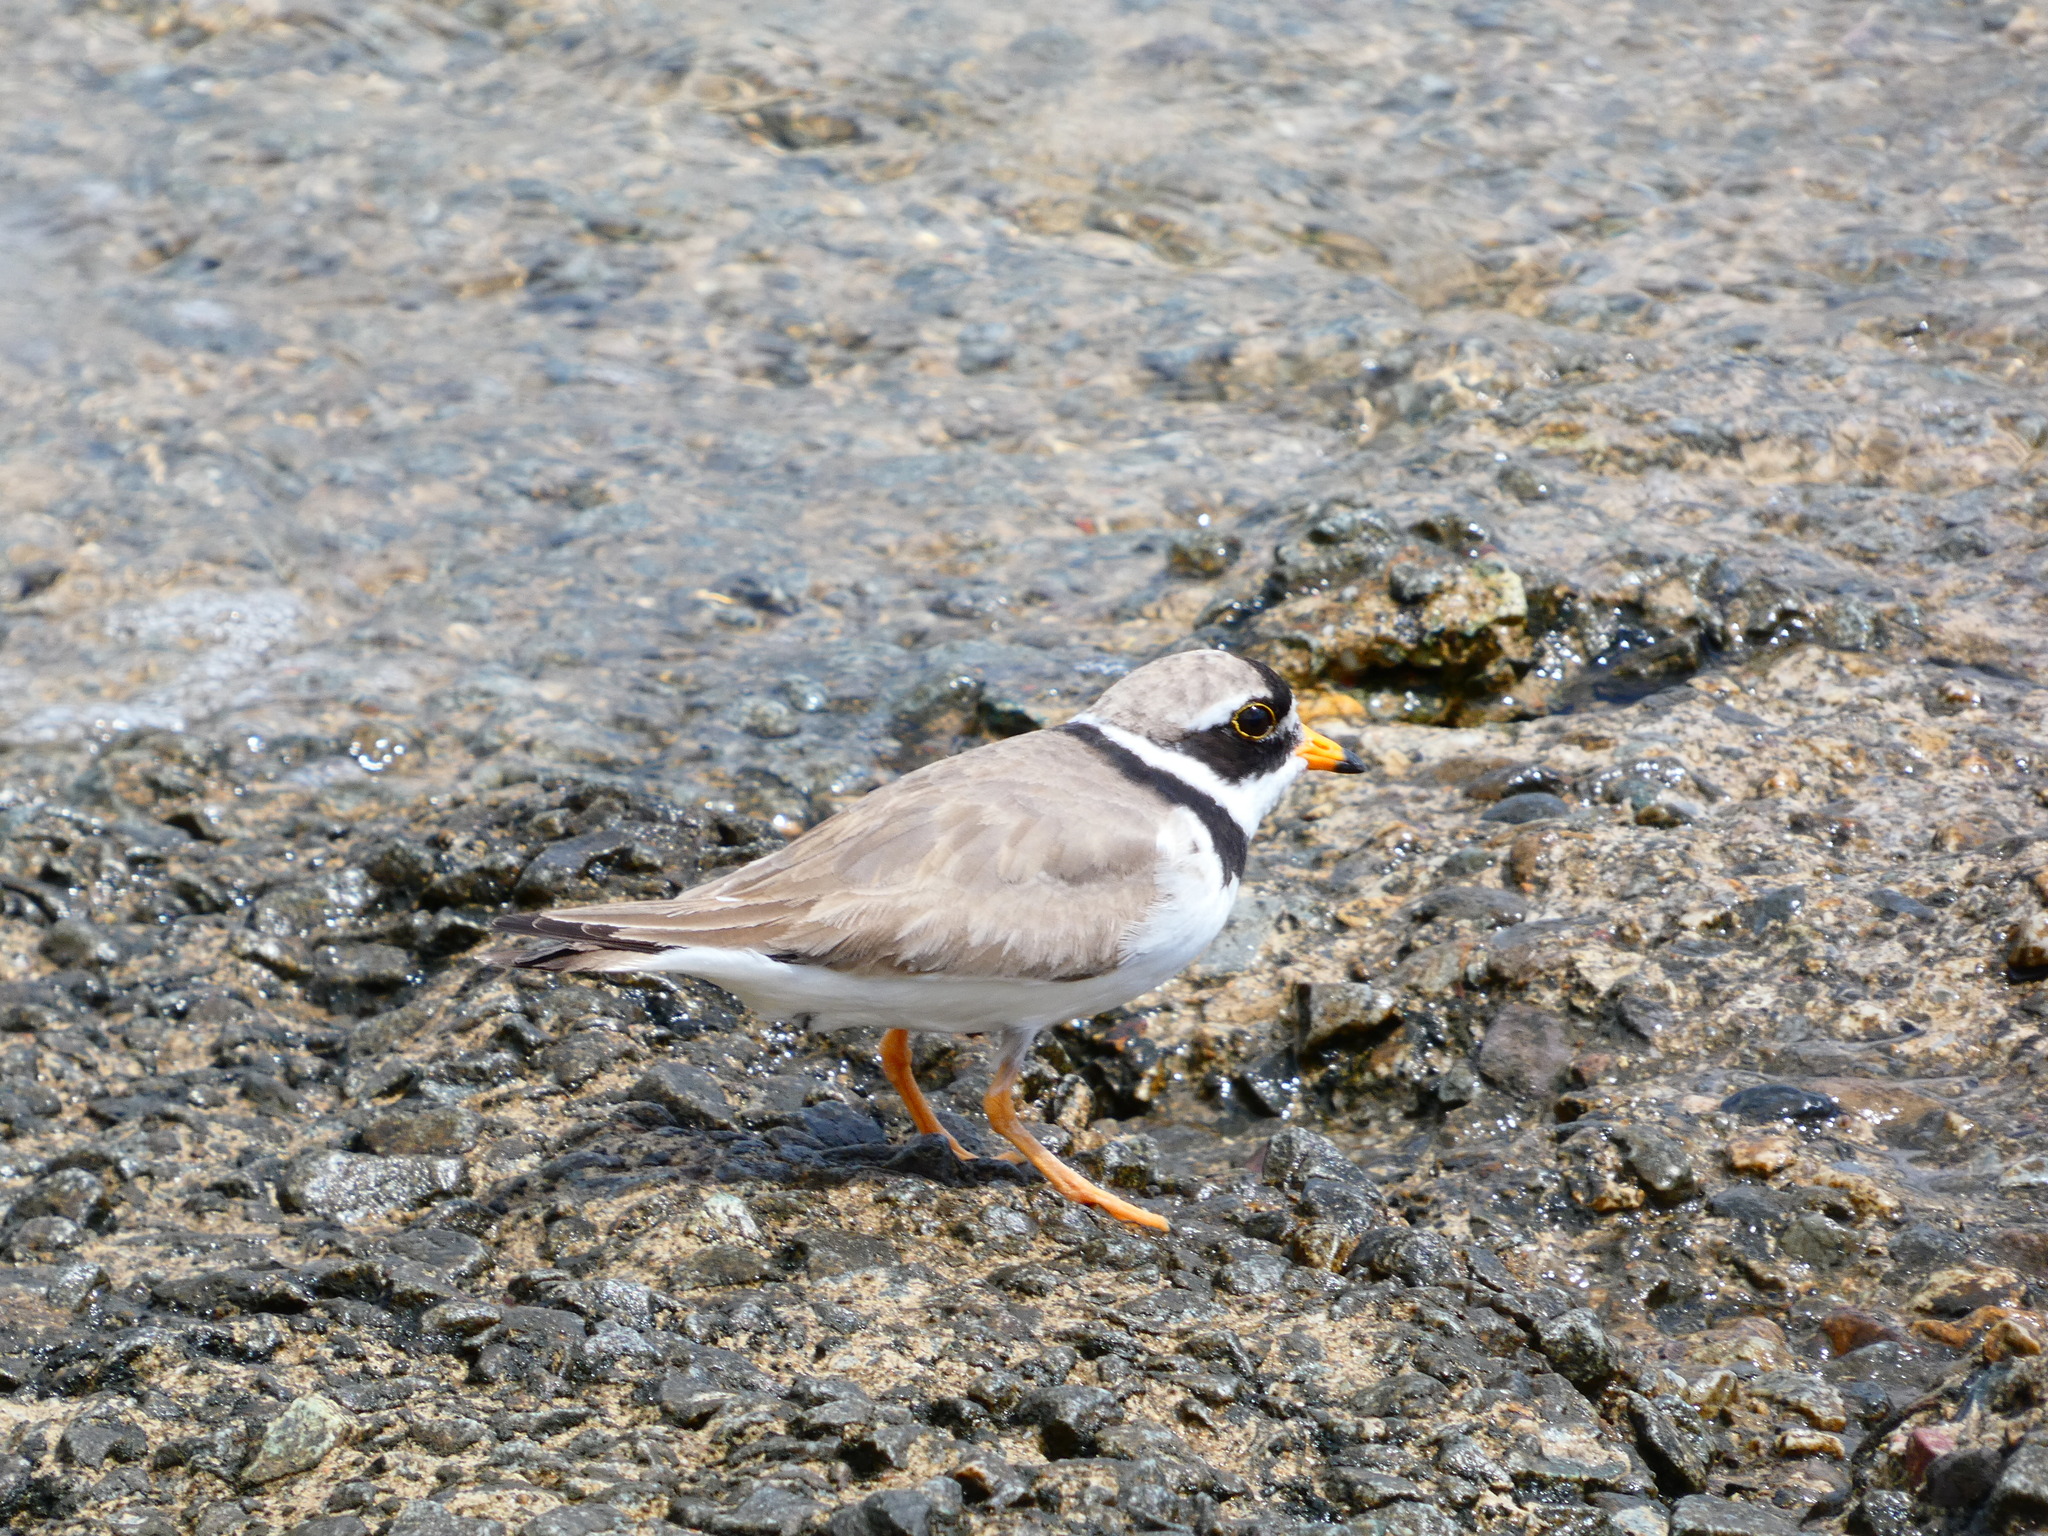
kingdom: Animalia
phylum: Chordata
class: Aves
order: Charadriiformes
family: Charadriidae
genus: Charadrius
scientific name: Charadrius hiaticula
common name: Common ringed plover
